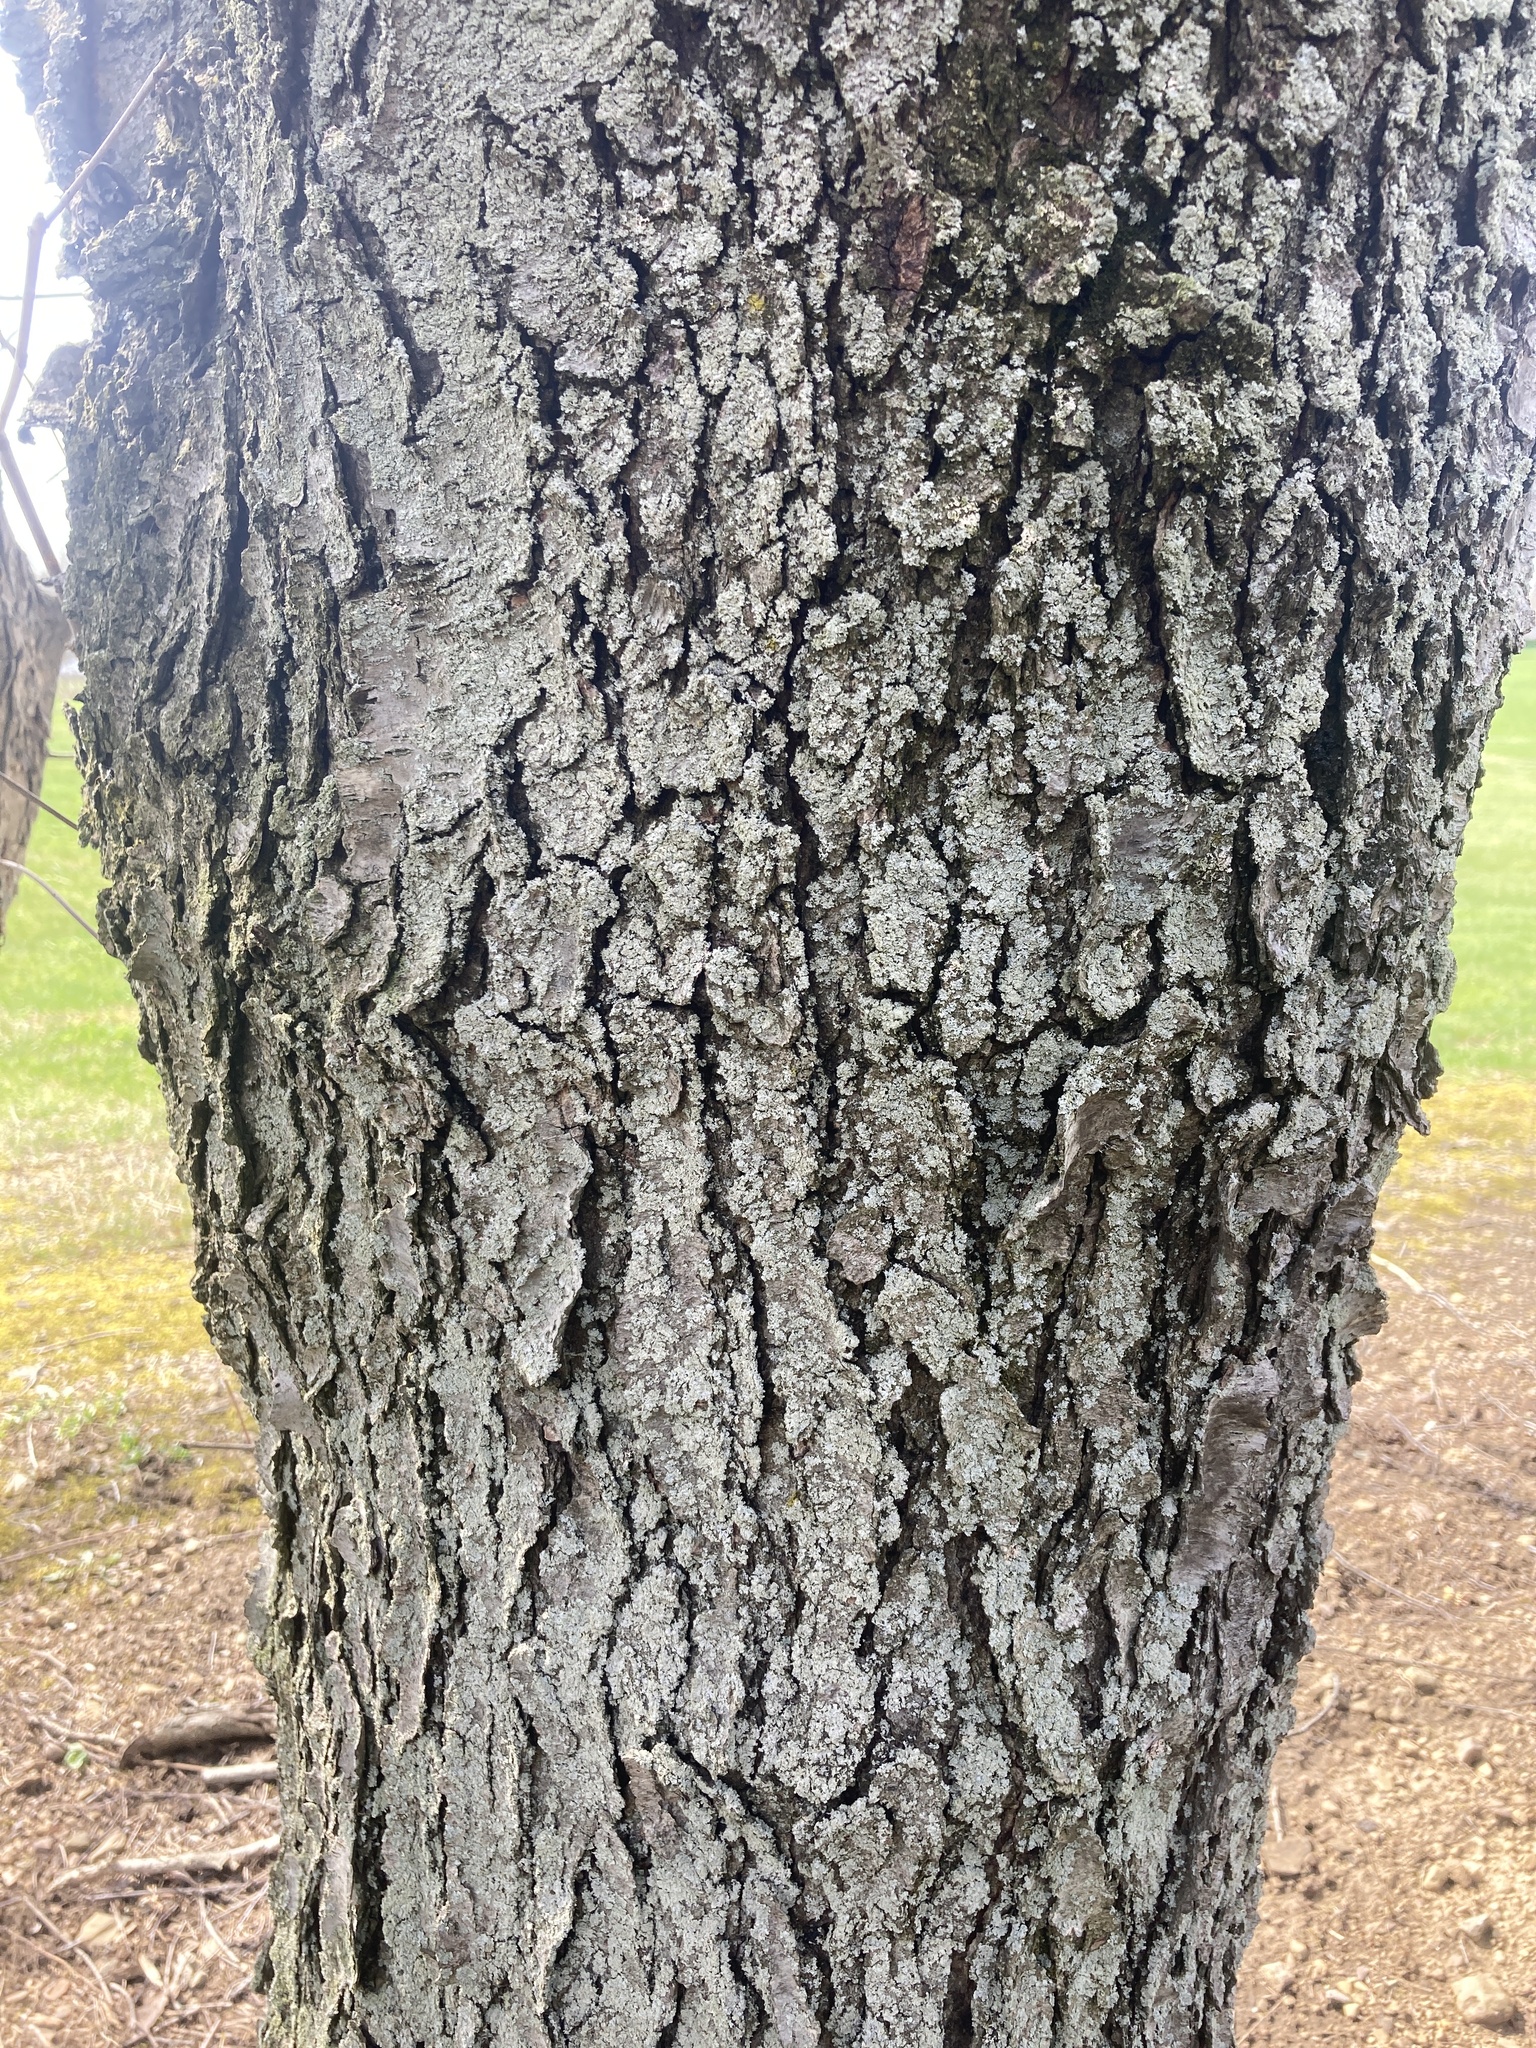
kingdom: Fungi
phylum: Ascomycota
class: Dothideomycetes
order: Venturiales
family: Venturiaceae
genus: Apiosporina
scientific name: Apiosporina morbosa
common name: Black knot
